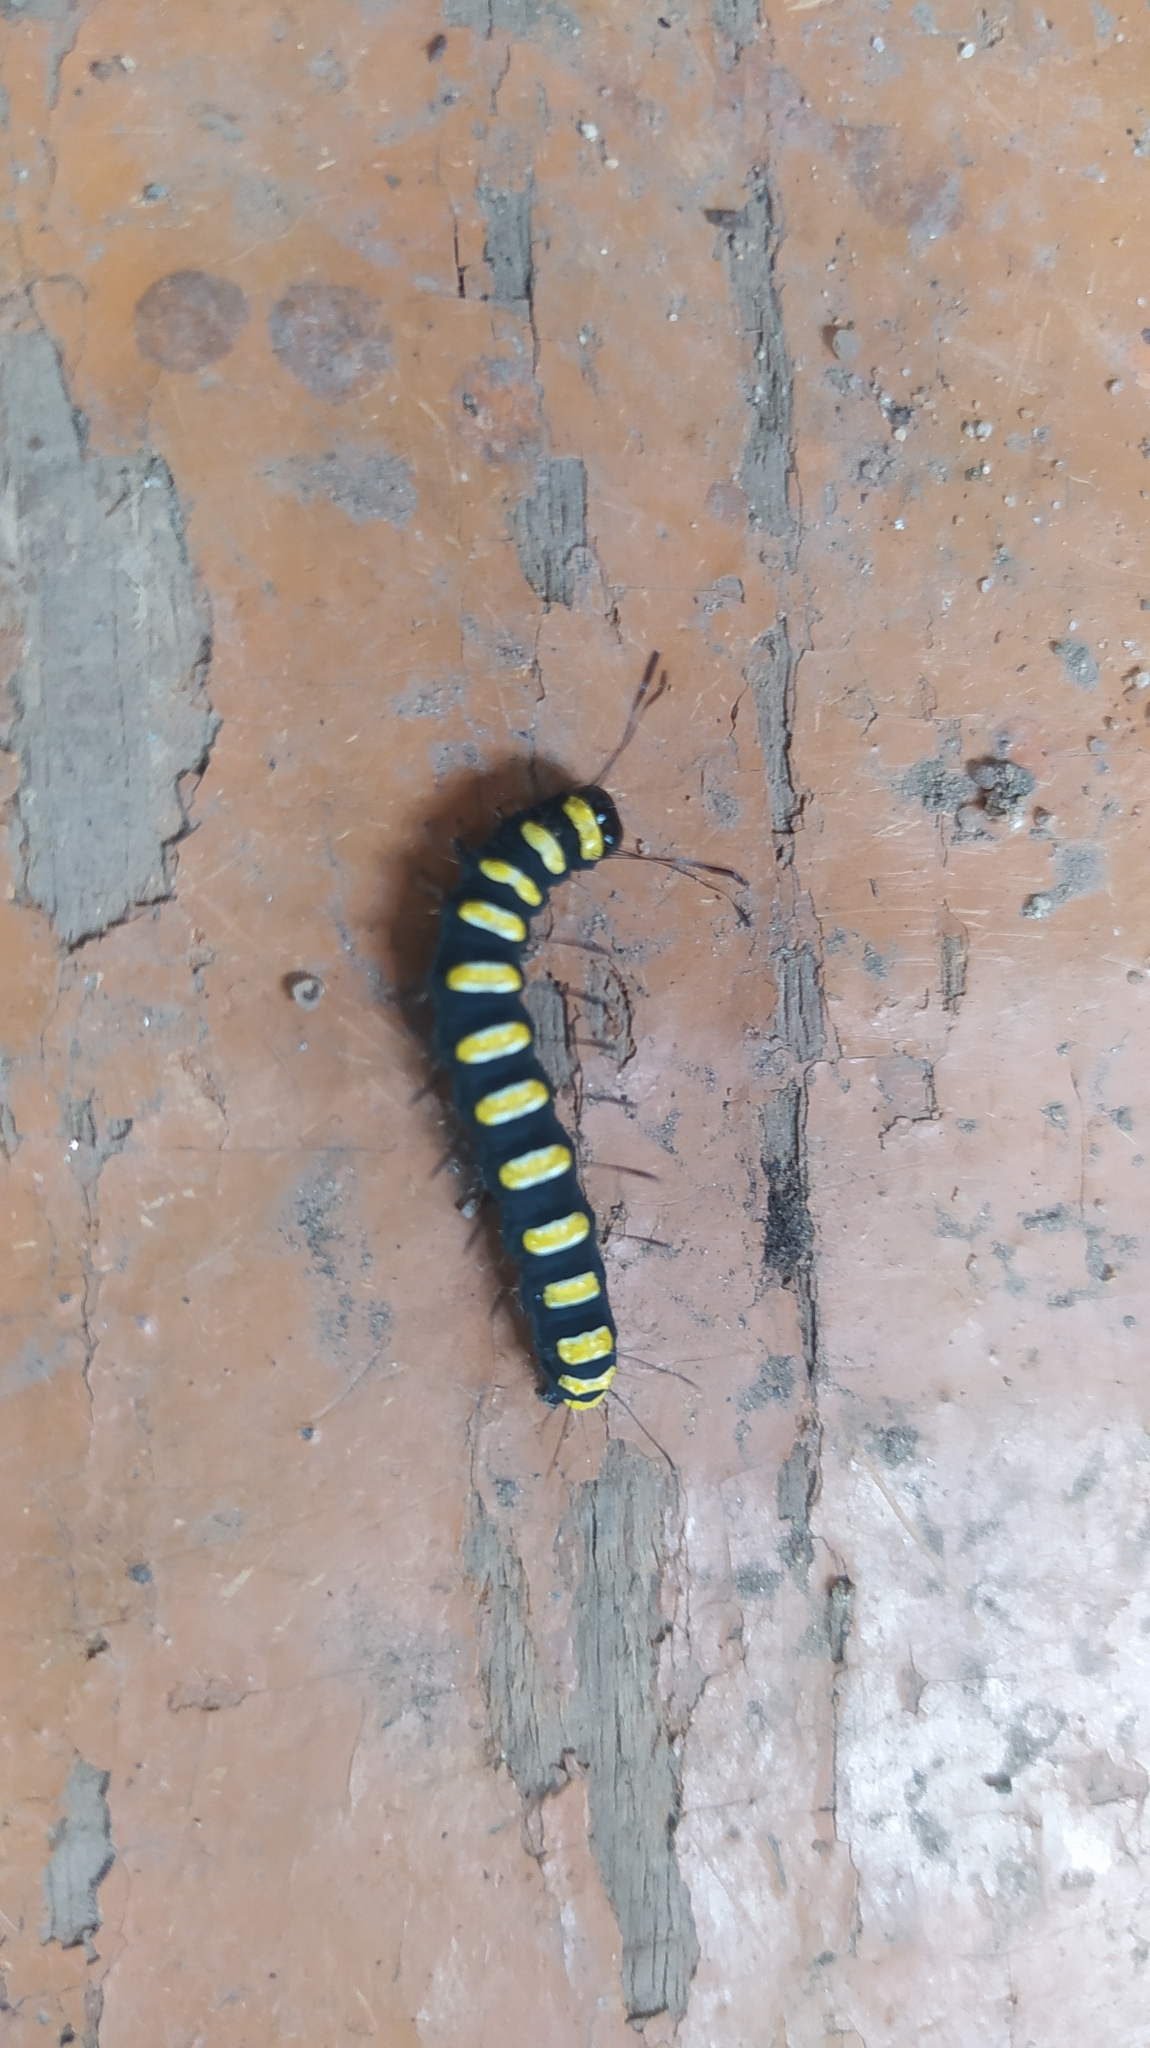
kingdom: Animalia
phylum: Arthropoda
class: Insecta
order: Lepidoptera
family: Noctuidae
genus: Acronicta
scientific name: Acronicta alni
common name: Alder moth
